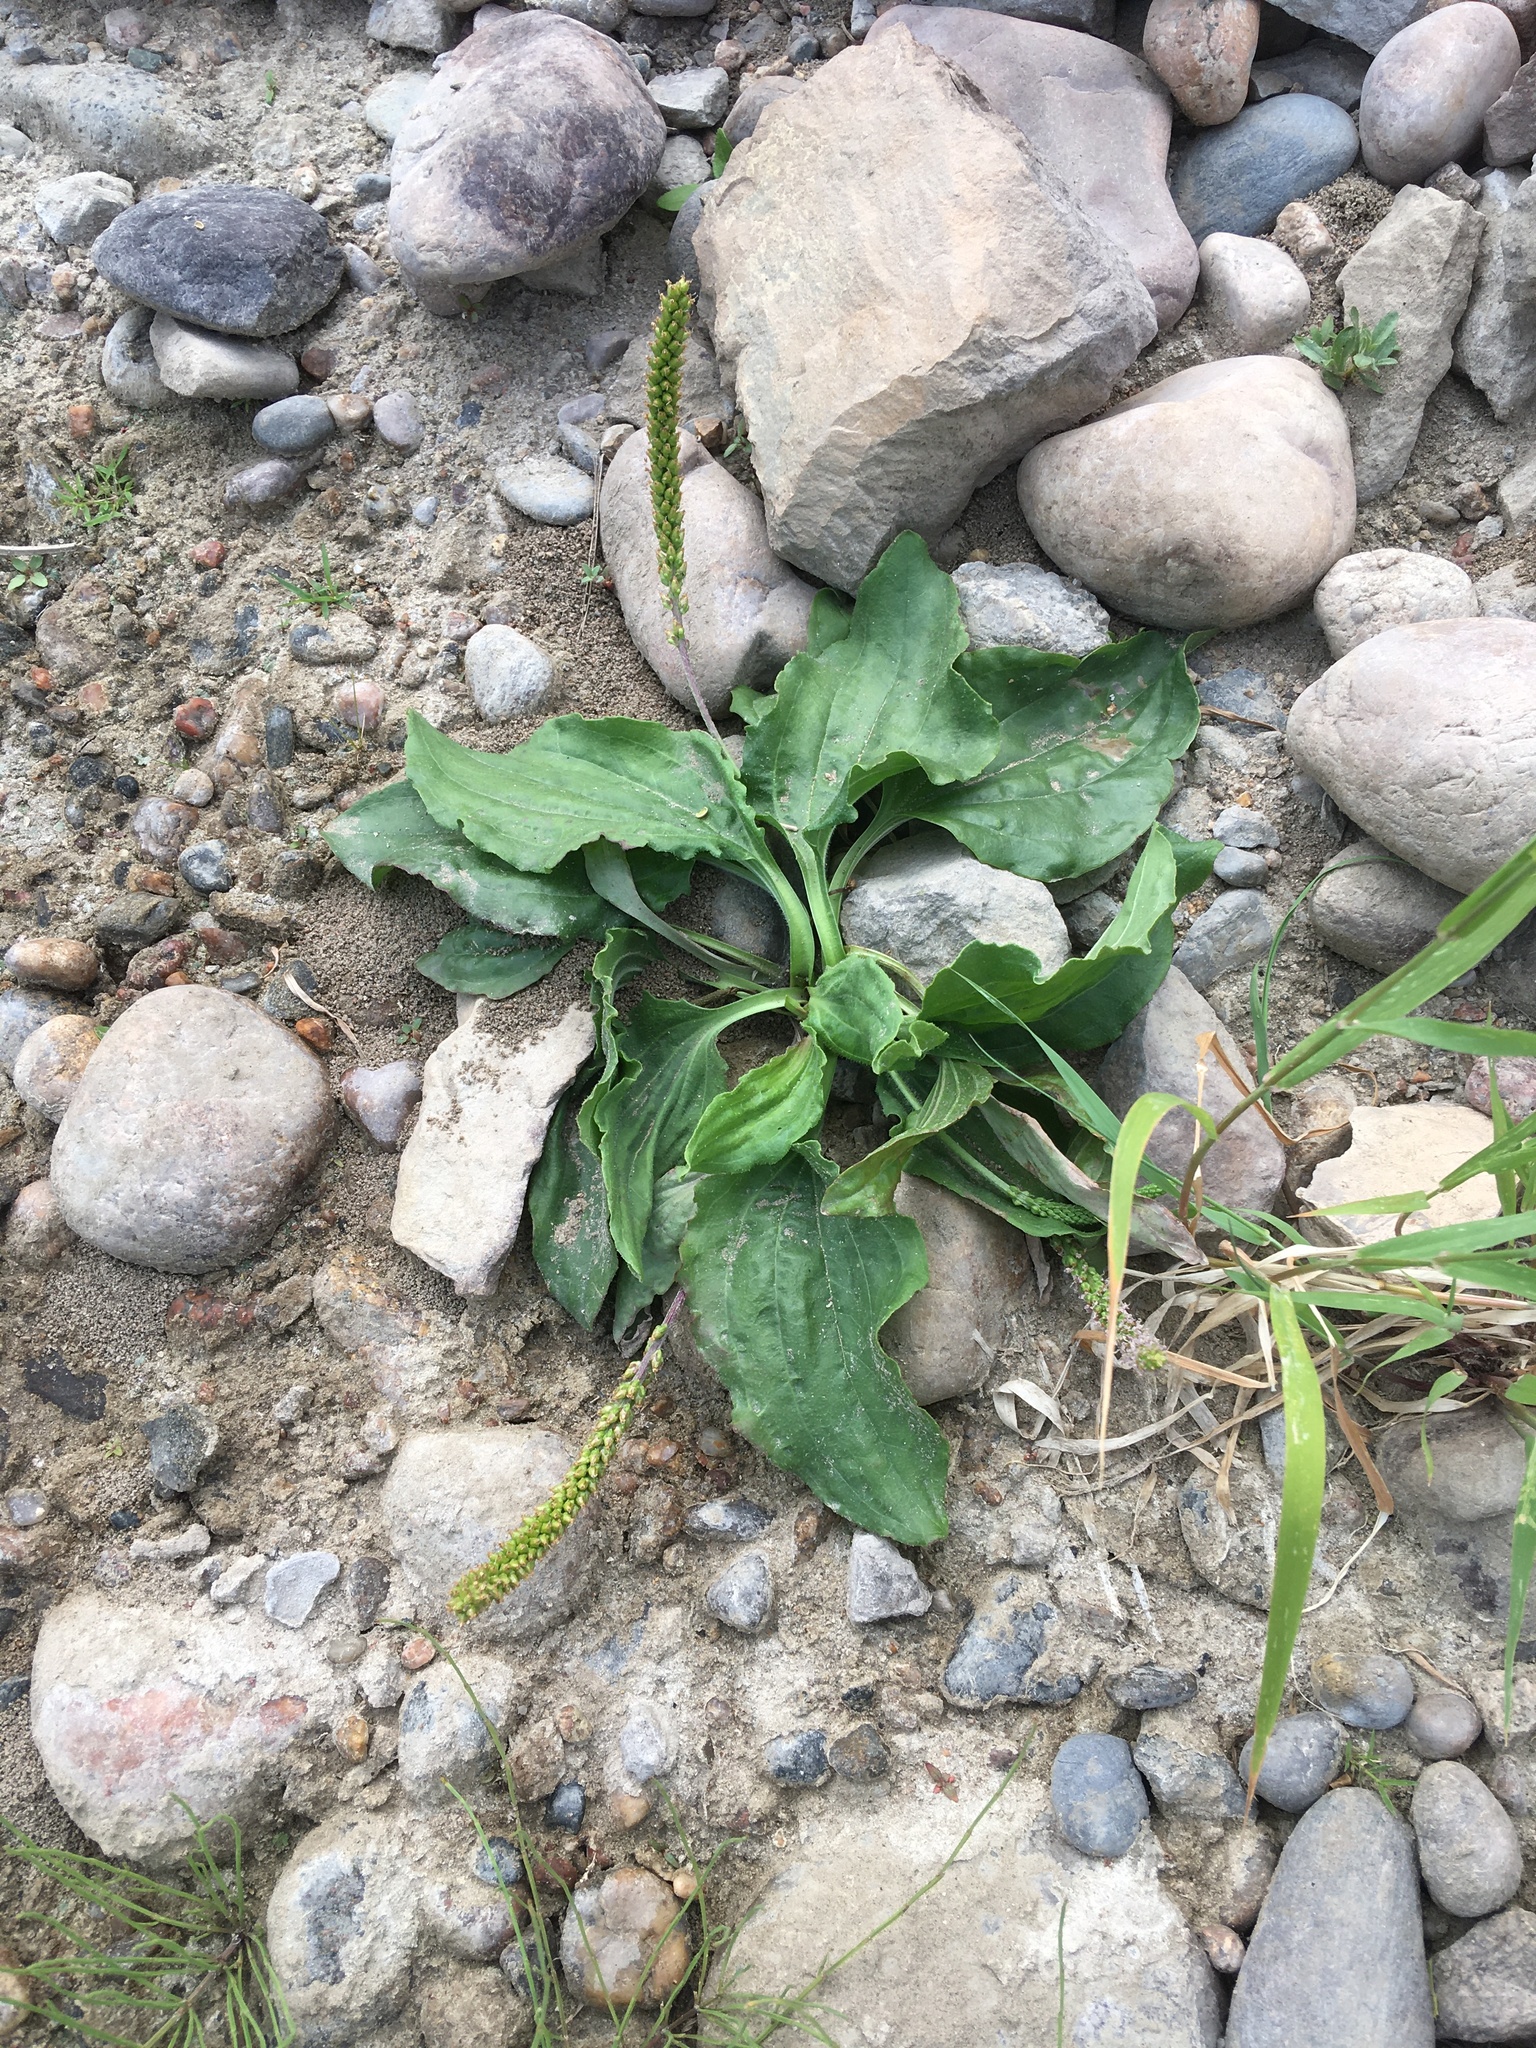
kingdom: Plantae
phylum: Tracheophyta
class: Magnoliopsida
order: Lamiales
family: Plantaginaceae
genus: Plantago
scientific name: Plantago major
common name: Common plantain
